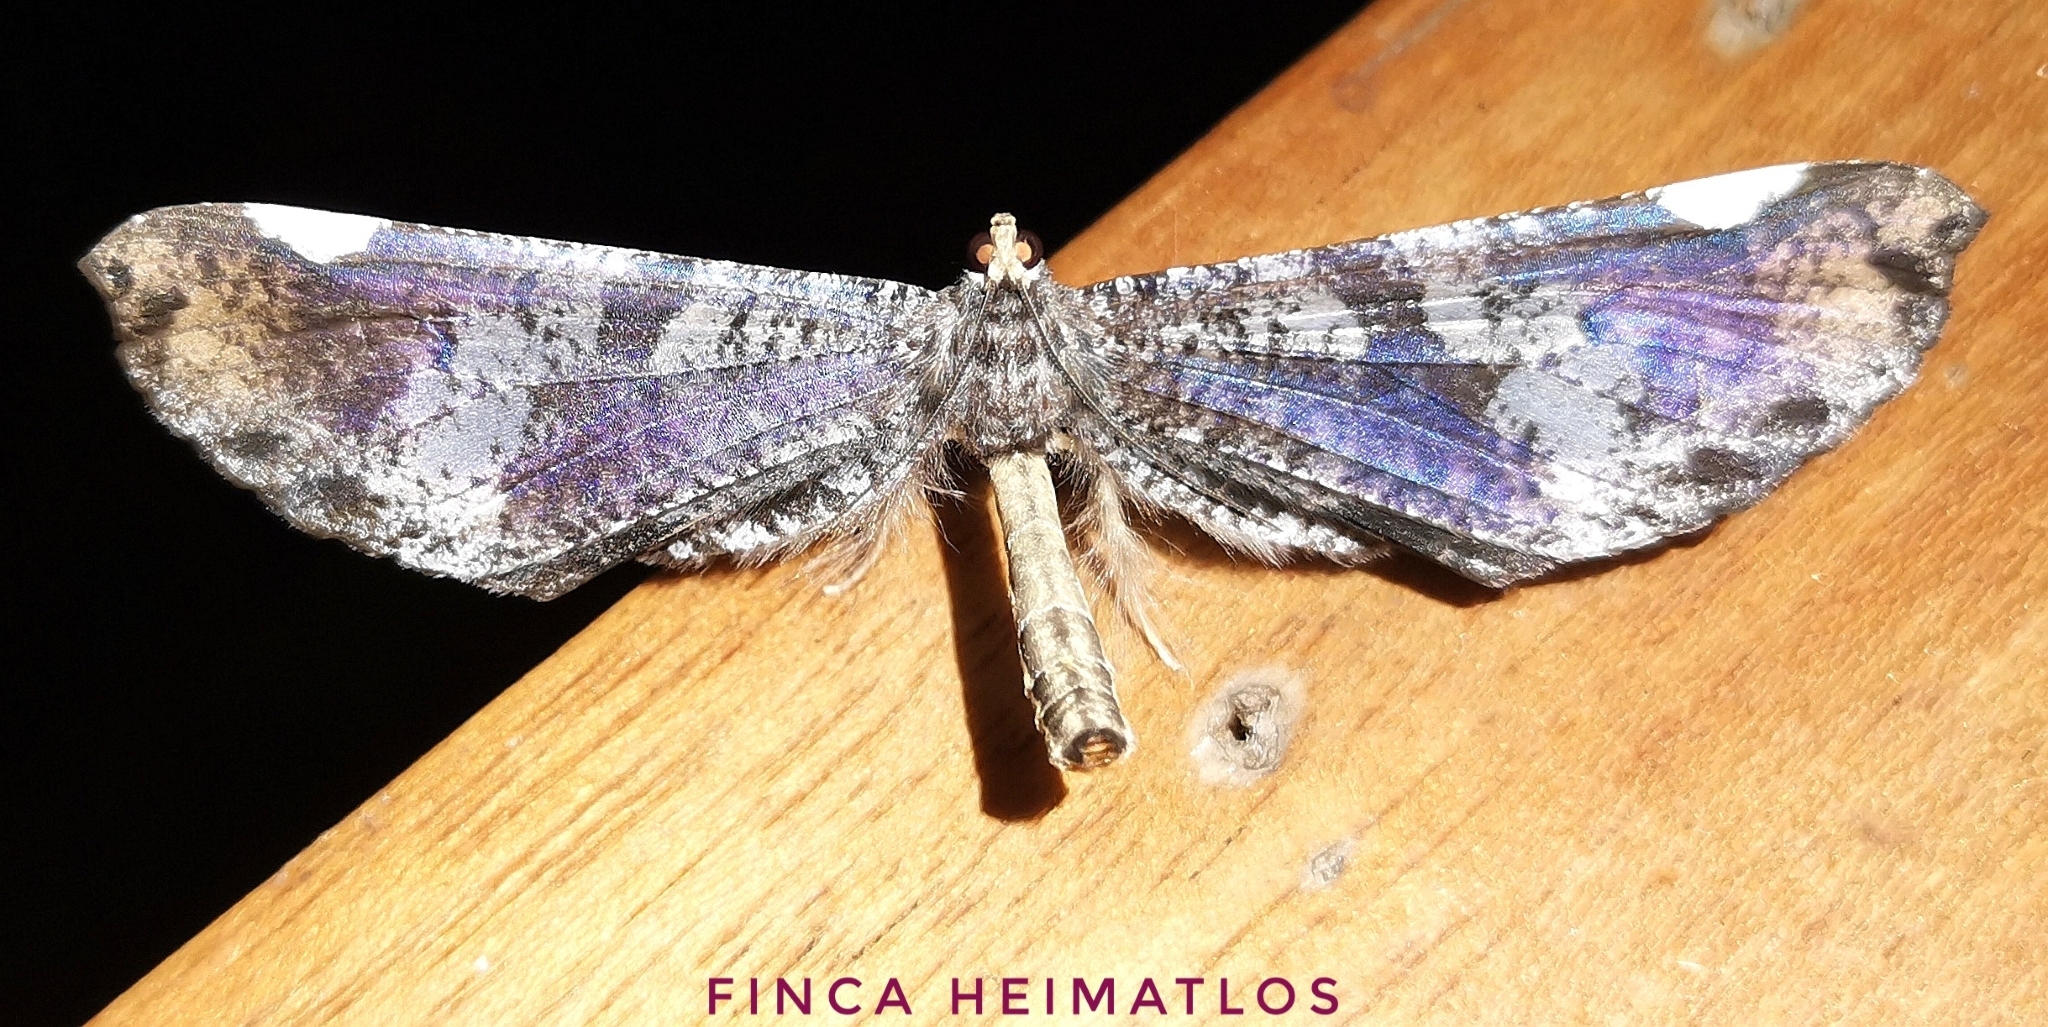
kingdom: Animalia
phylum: Arthropoda
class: Insecta
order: Lepidoptera
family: Hedylidae
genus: Macrosoma
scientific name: Macrosoma hyacinthina
